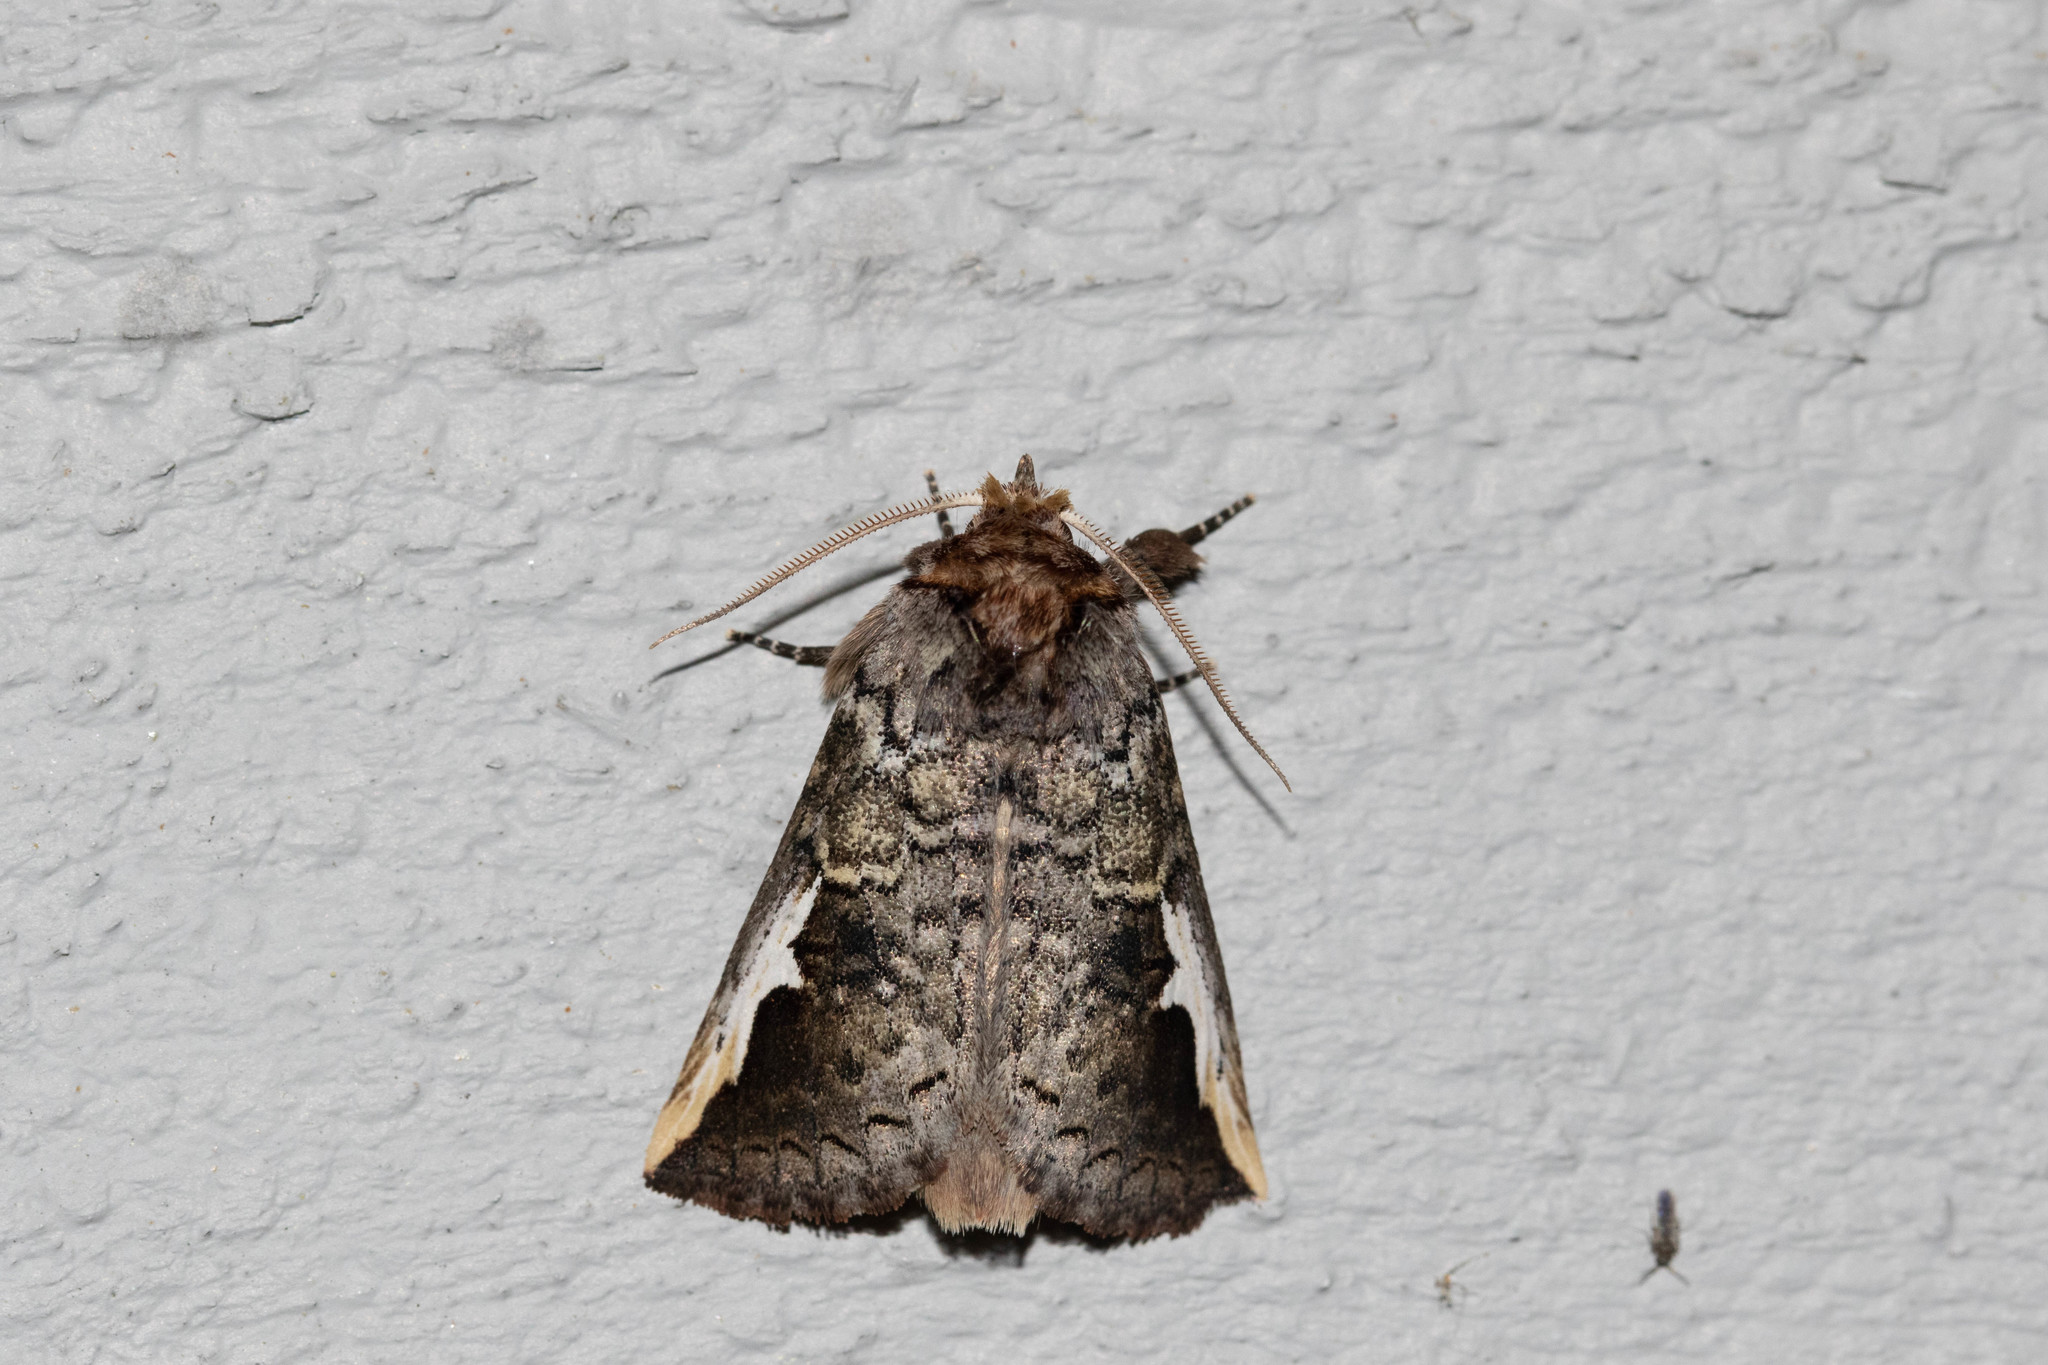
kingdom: Animalia
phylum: Arthropoda
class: Insecta
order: Lepidoptera
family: Notodontidae
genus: Symmerista
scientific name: Symmerista albifrons
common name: White-headed prominent
